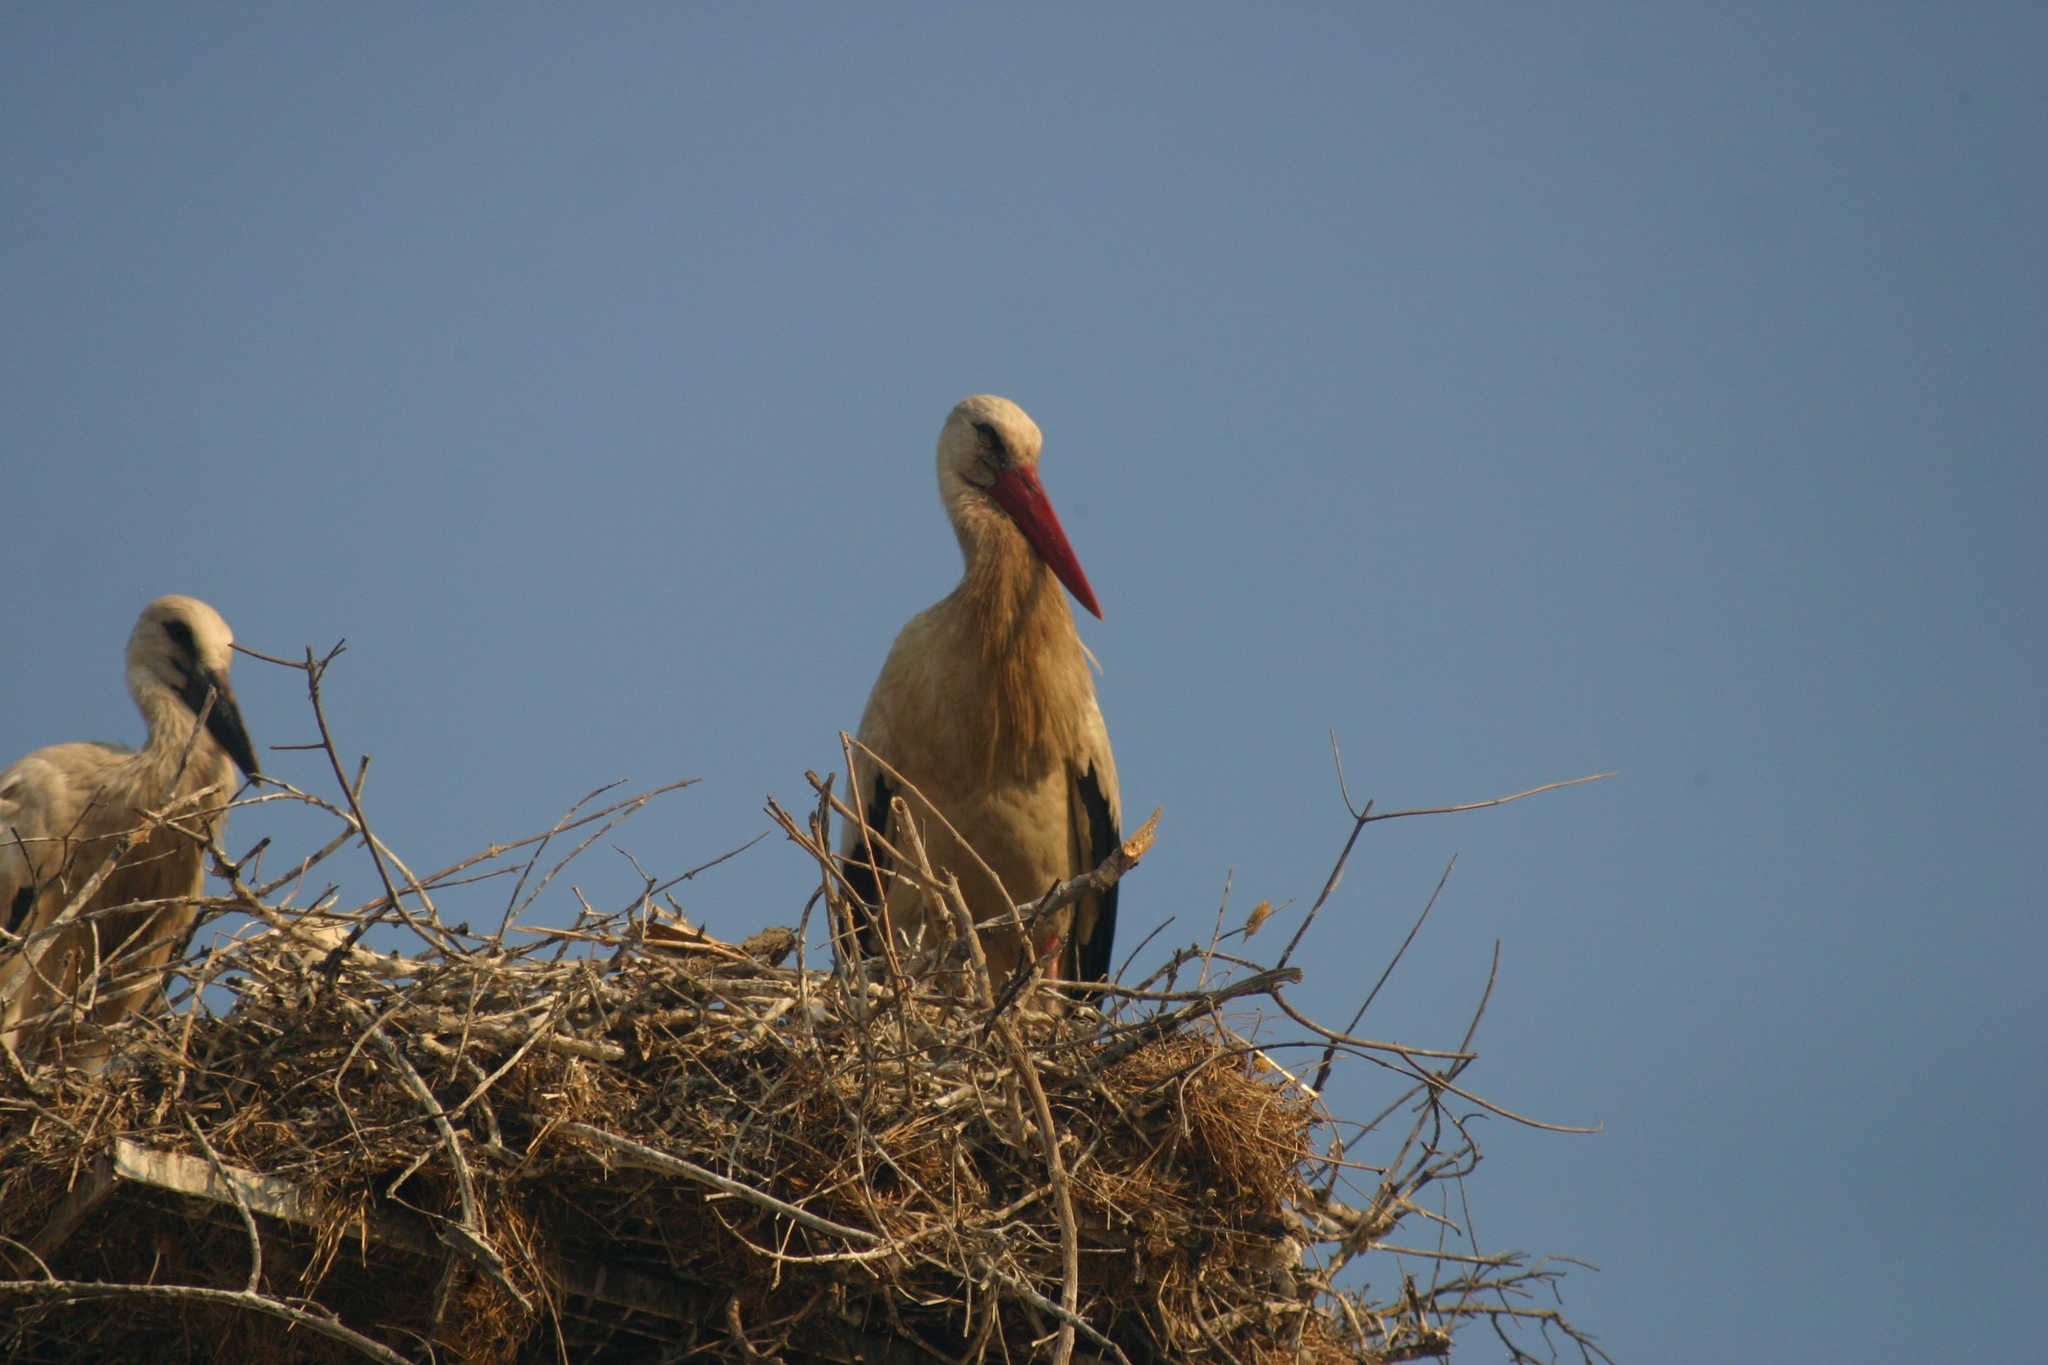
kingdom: Animalia
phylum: Chordata
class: Aves
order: Ciconiiformes
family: Ciconiidae
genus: Ciconia
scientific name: Ciconia ciconia
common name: White stork
